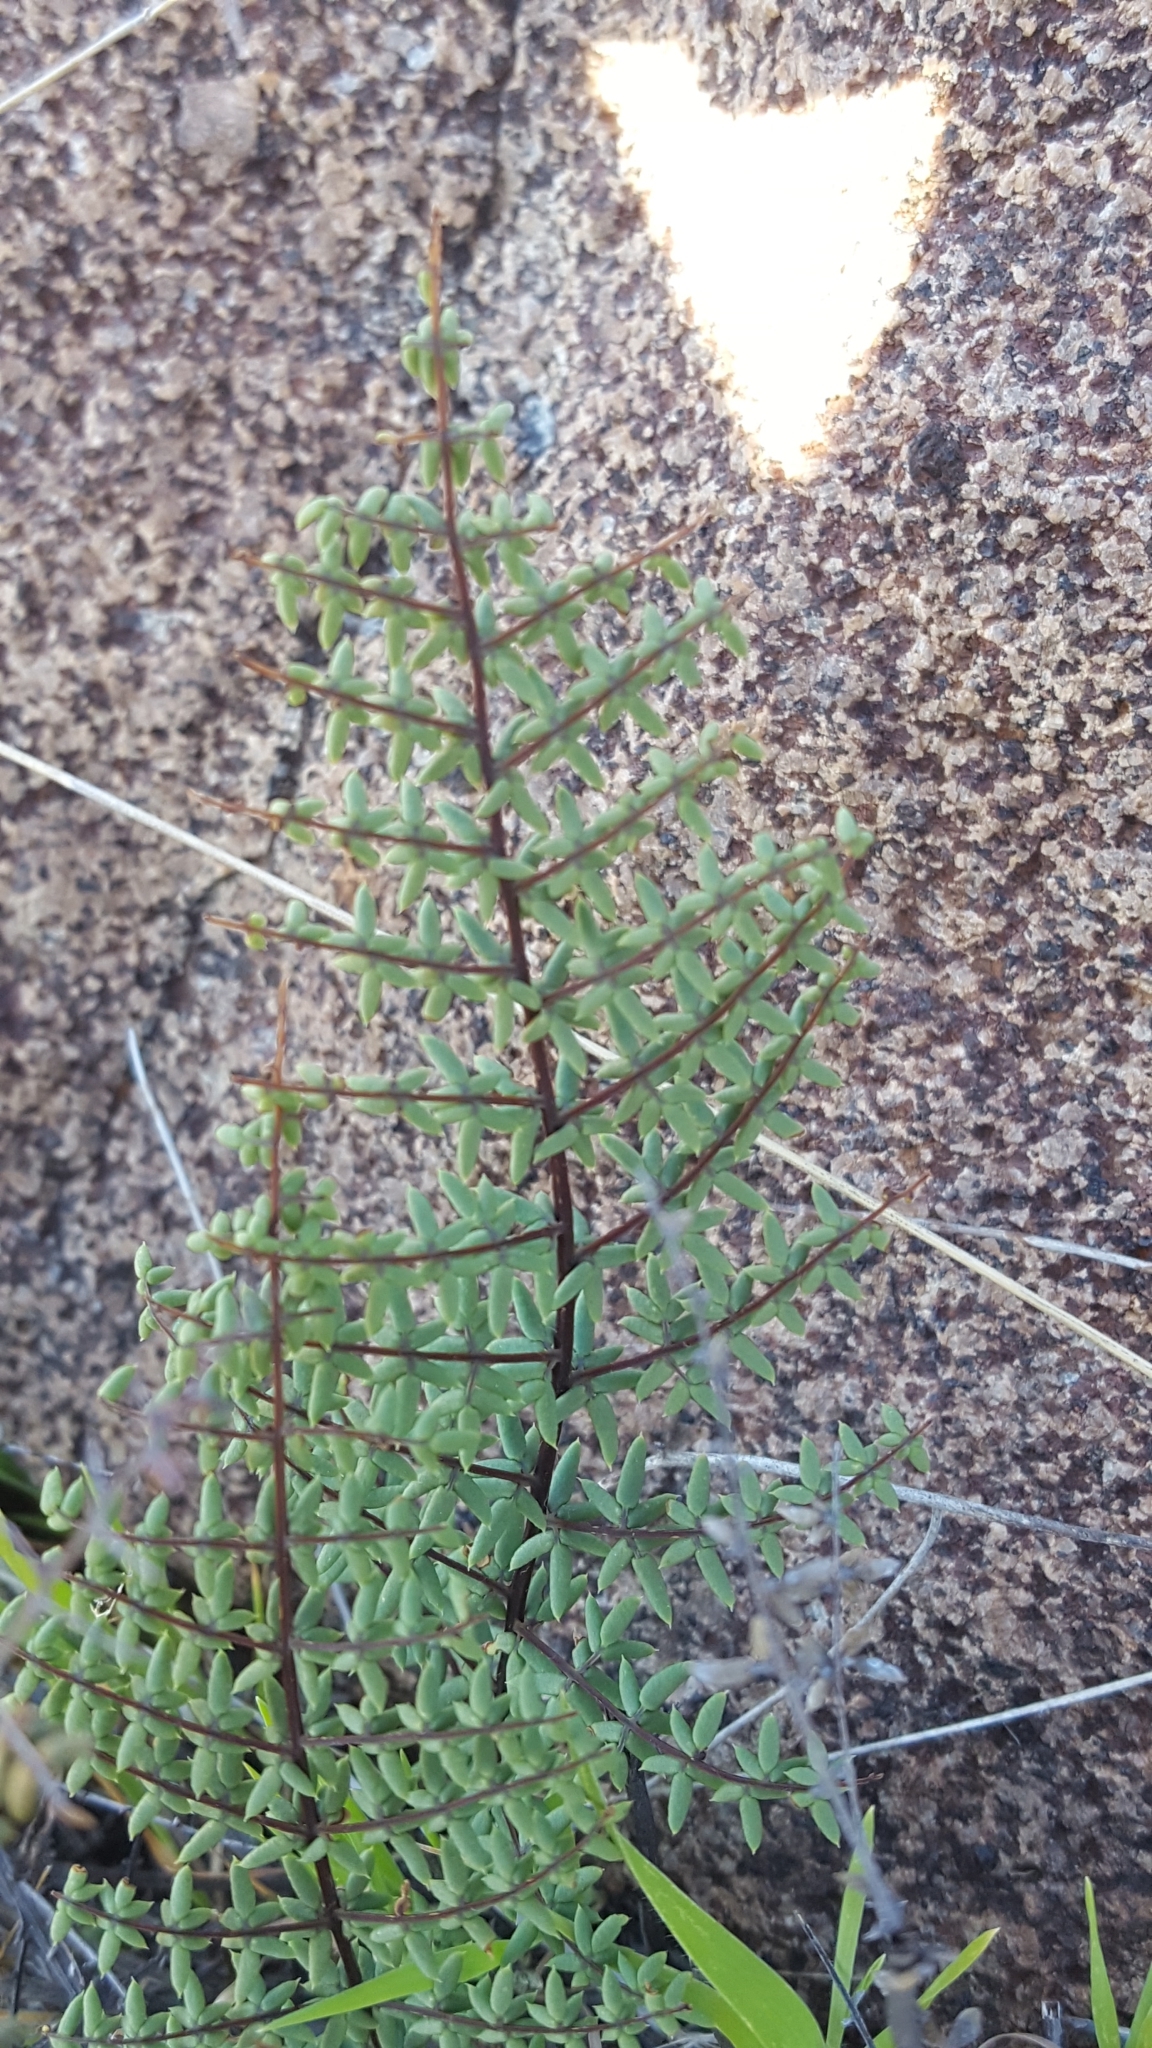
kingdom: Plantae
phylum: Tracheophyta
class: Polypodiopsida
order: Polypodiales
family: Pteridaceae
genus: Pellaea
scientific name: Pellaea mucronata
